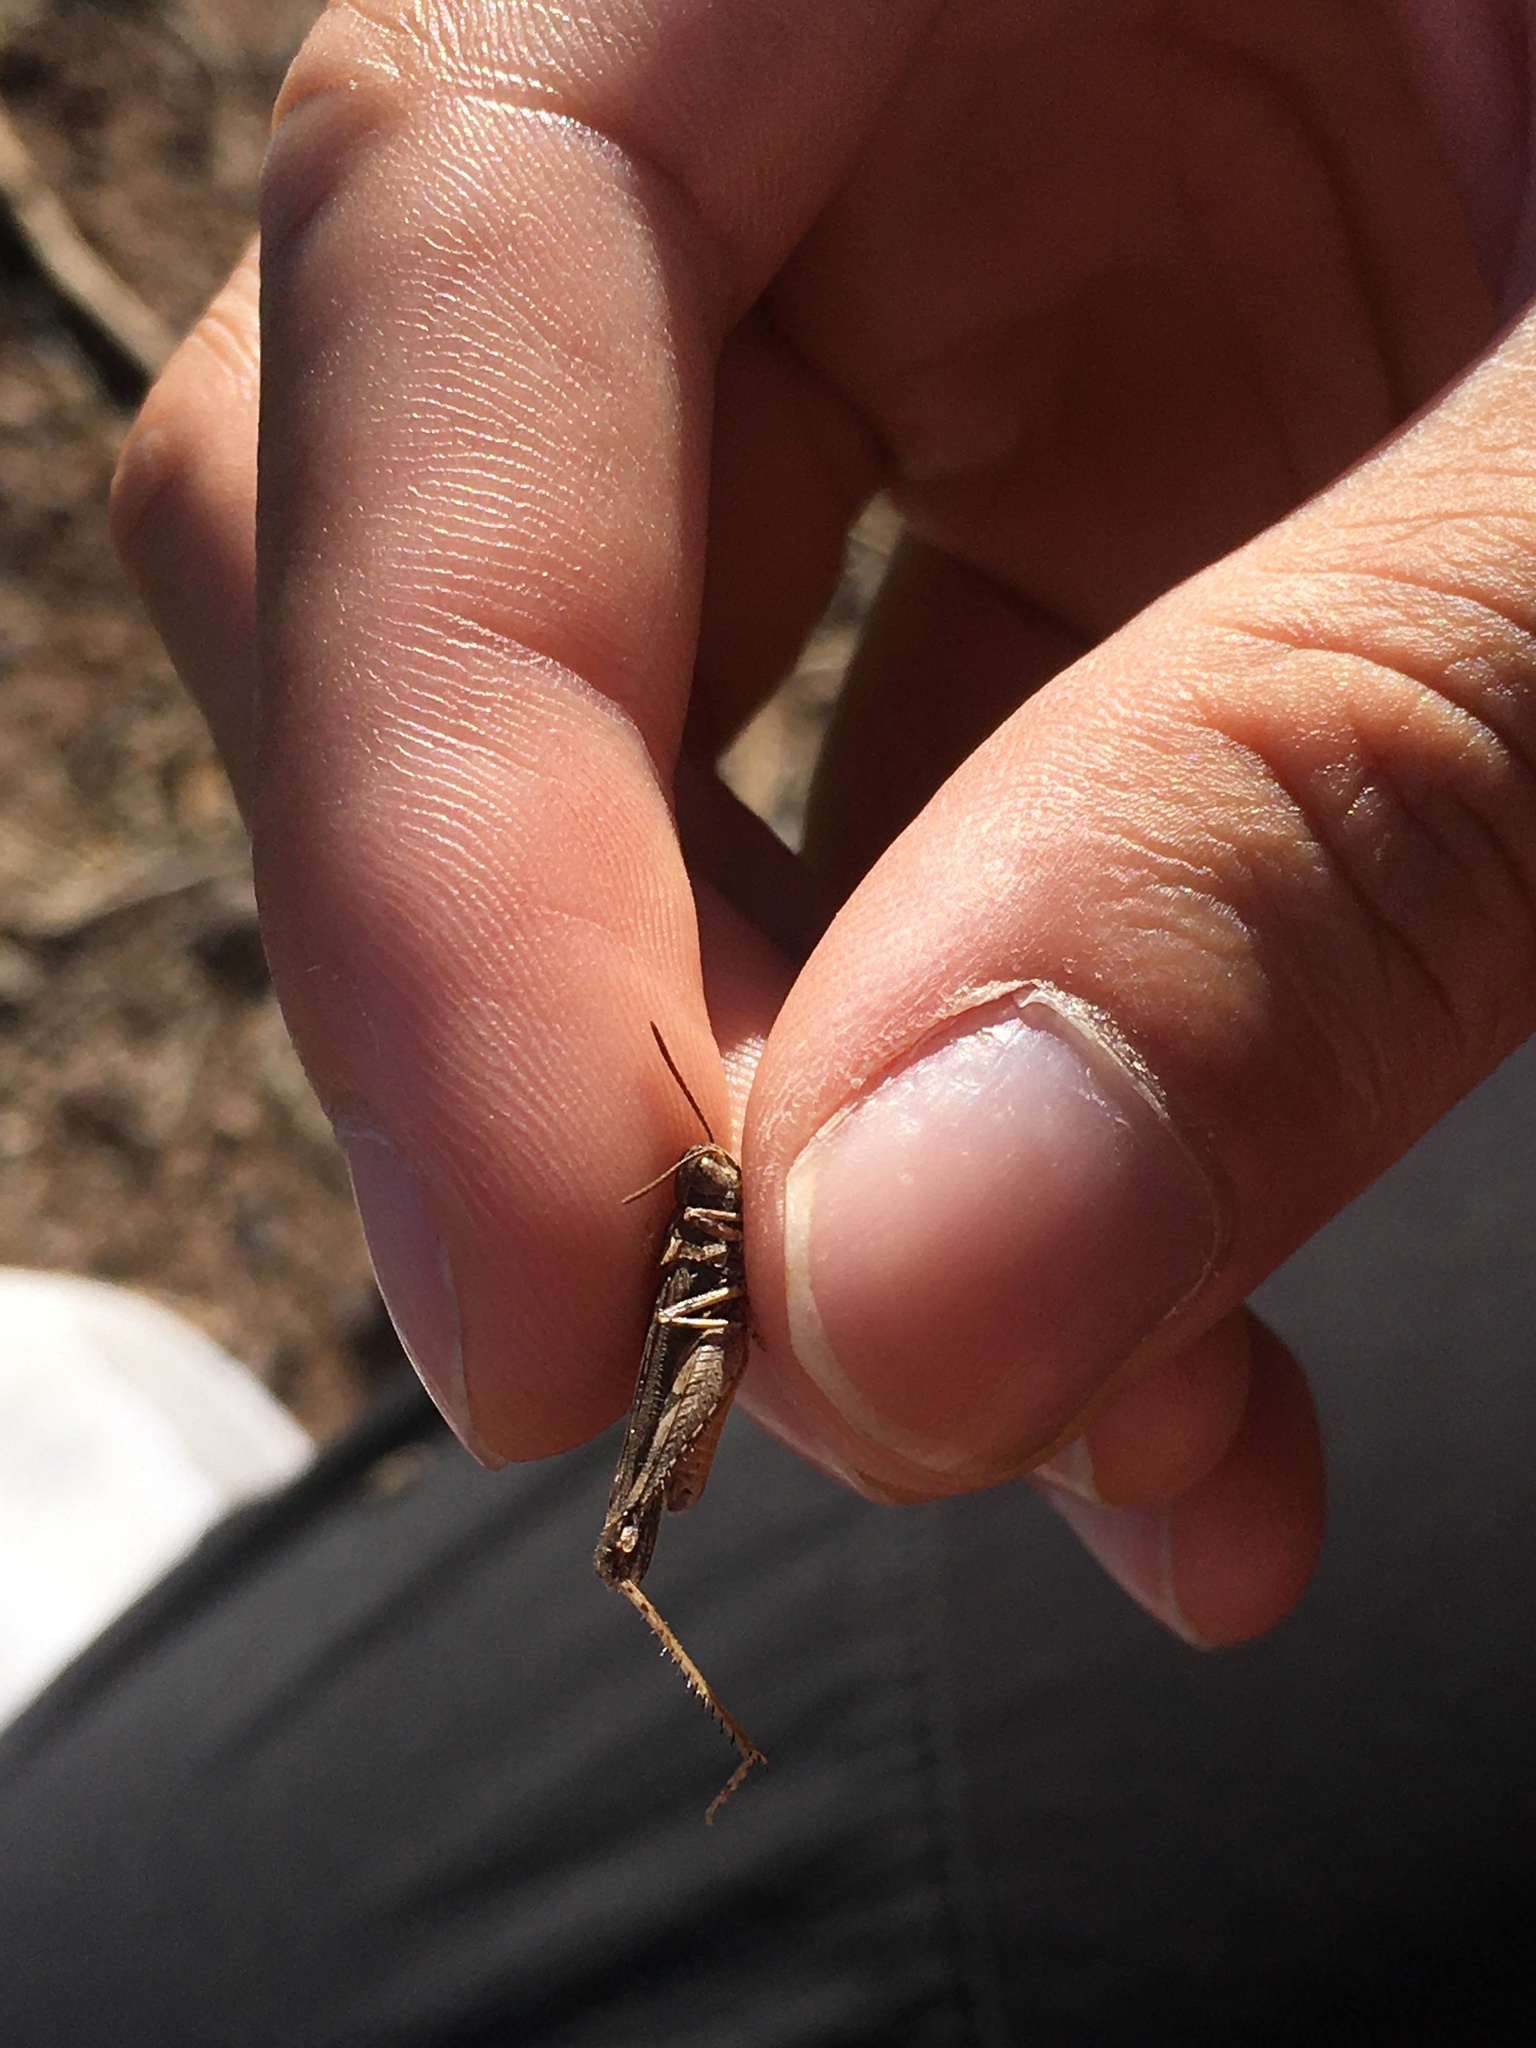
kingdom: Animalia
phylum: Arthropoda
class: Insecta
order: Orthoptera
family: Acrididae
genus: Psoloessa
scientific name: Psoloessa texana
